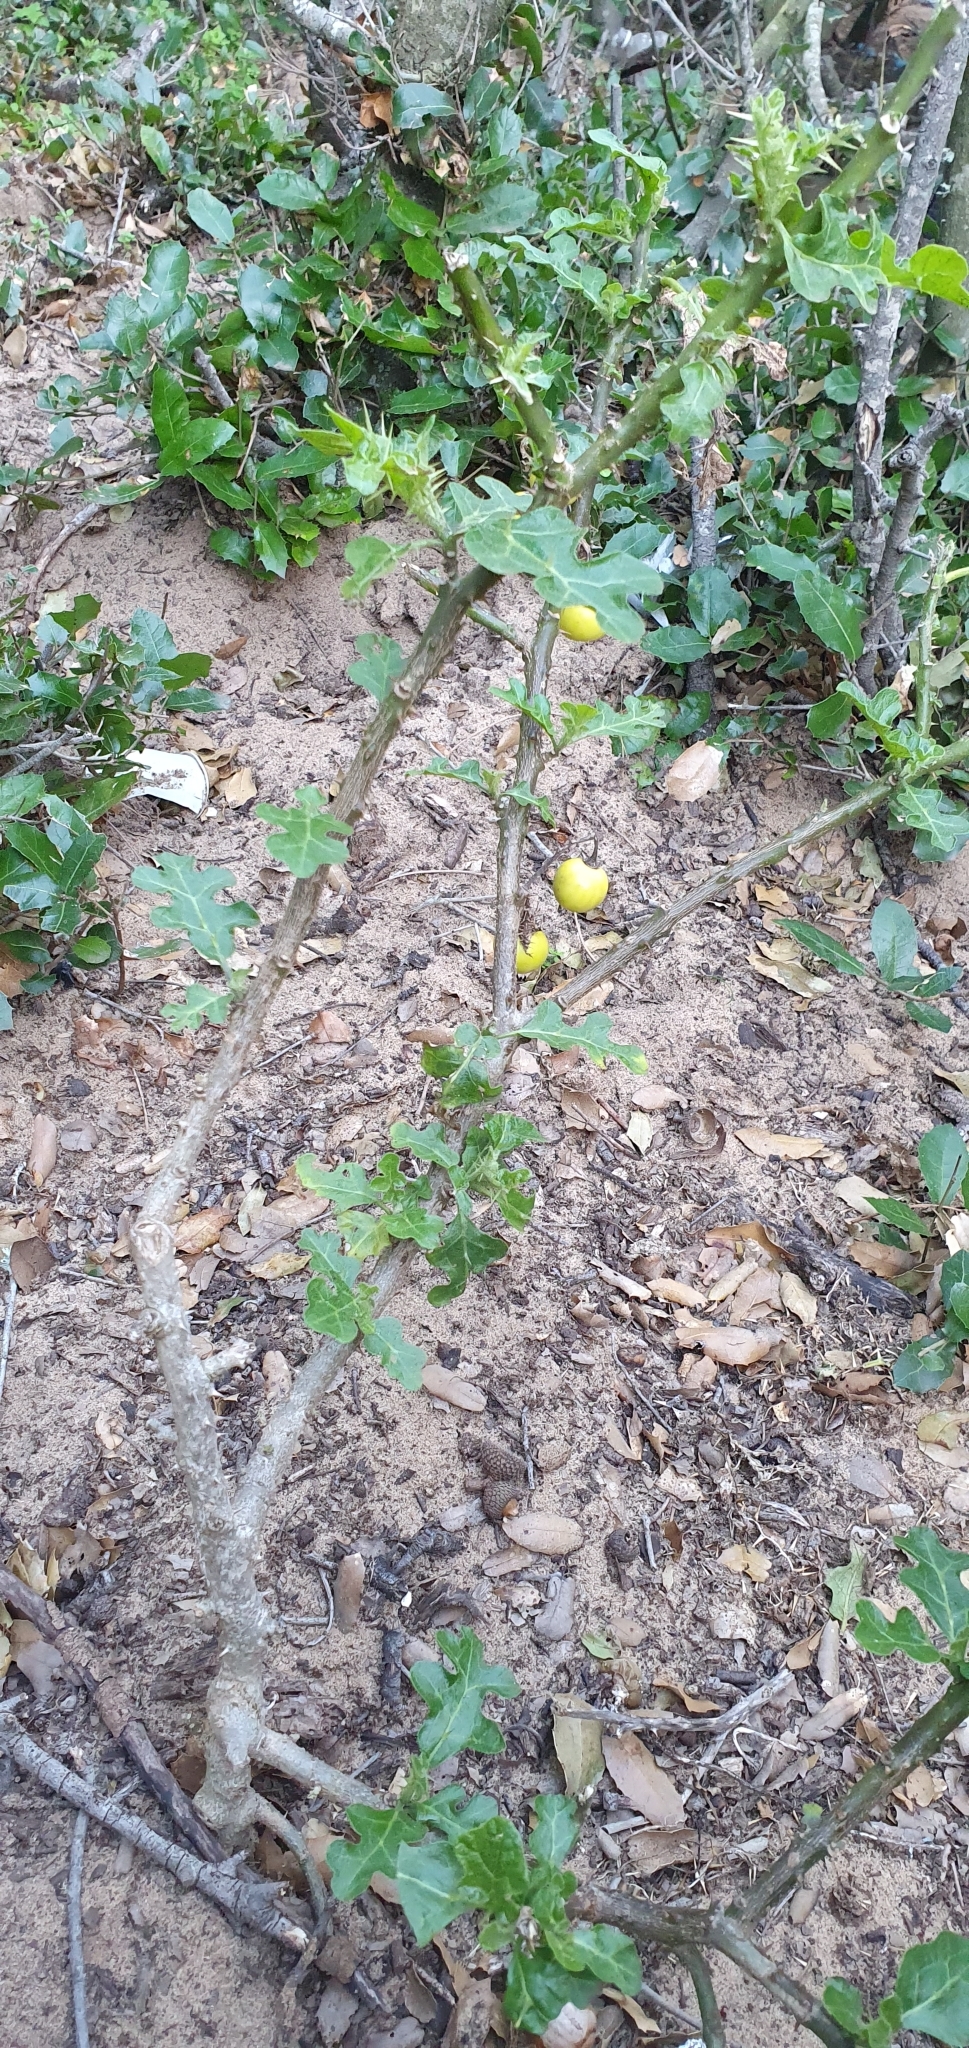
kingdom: Plantae
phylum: Tracheophyta
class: Magnoliopsida
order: Solanales
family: Solanaceae
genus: Solanum
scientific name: Solanum linnaeanum
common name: Nightshade
